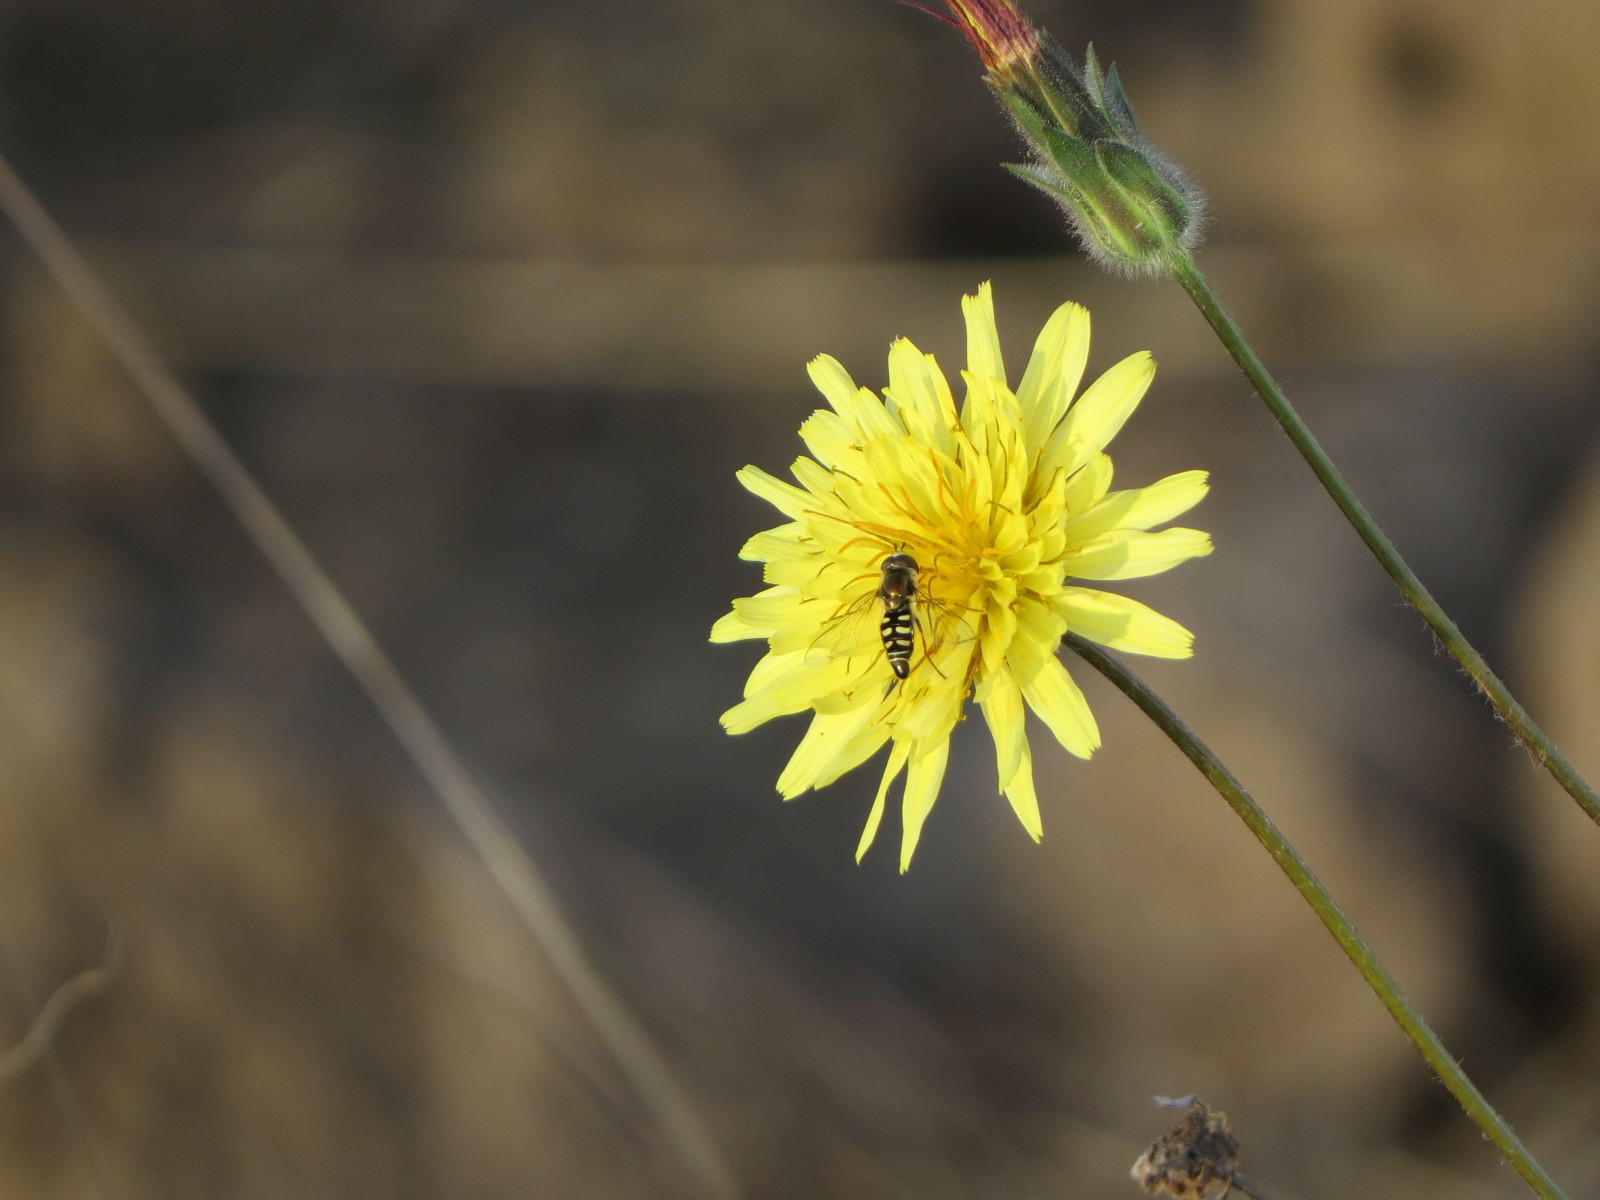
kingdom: Animalia
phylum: Arthropoda
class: Insecta
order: Diptera
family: Syrphidae
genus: Eupeodes
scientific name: Eupeodes volucris
